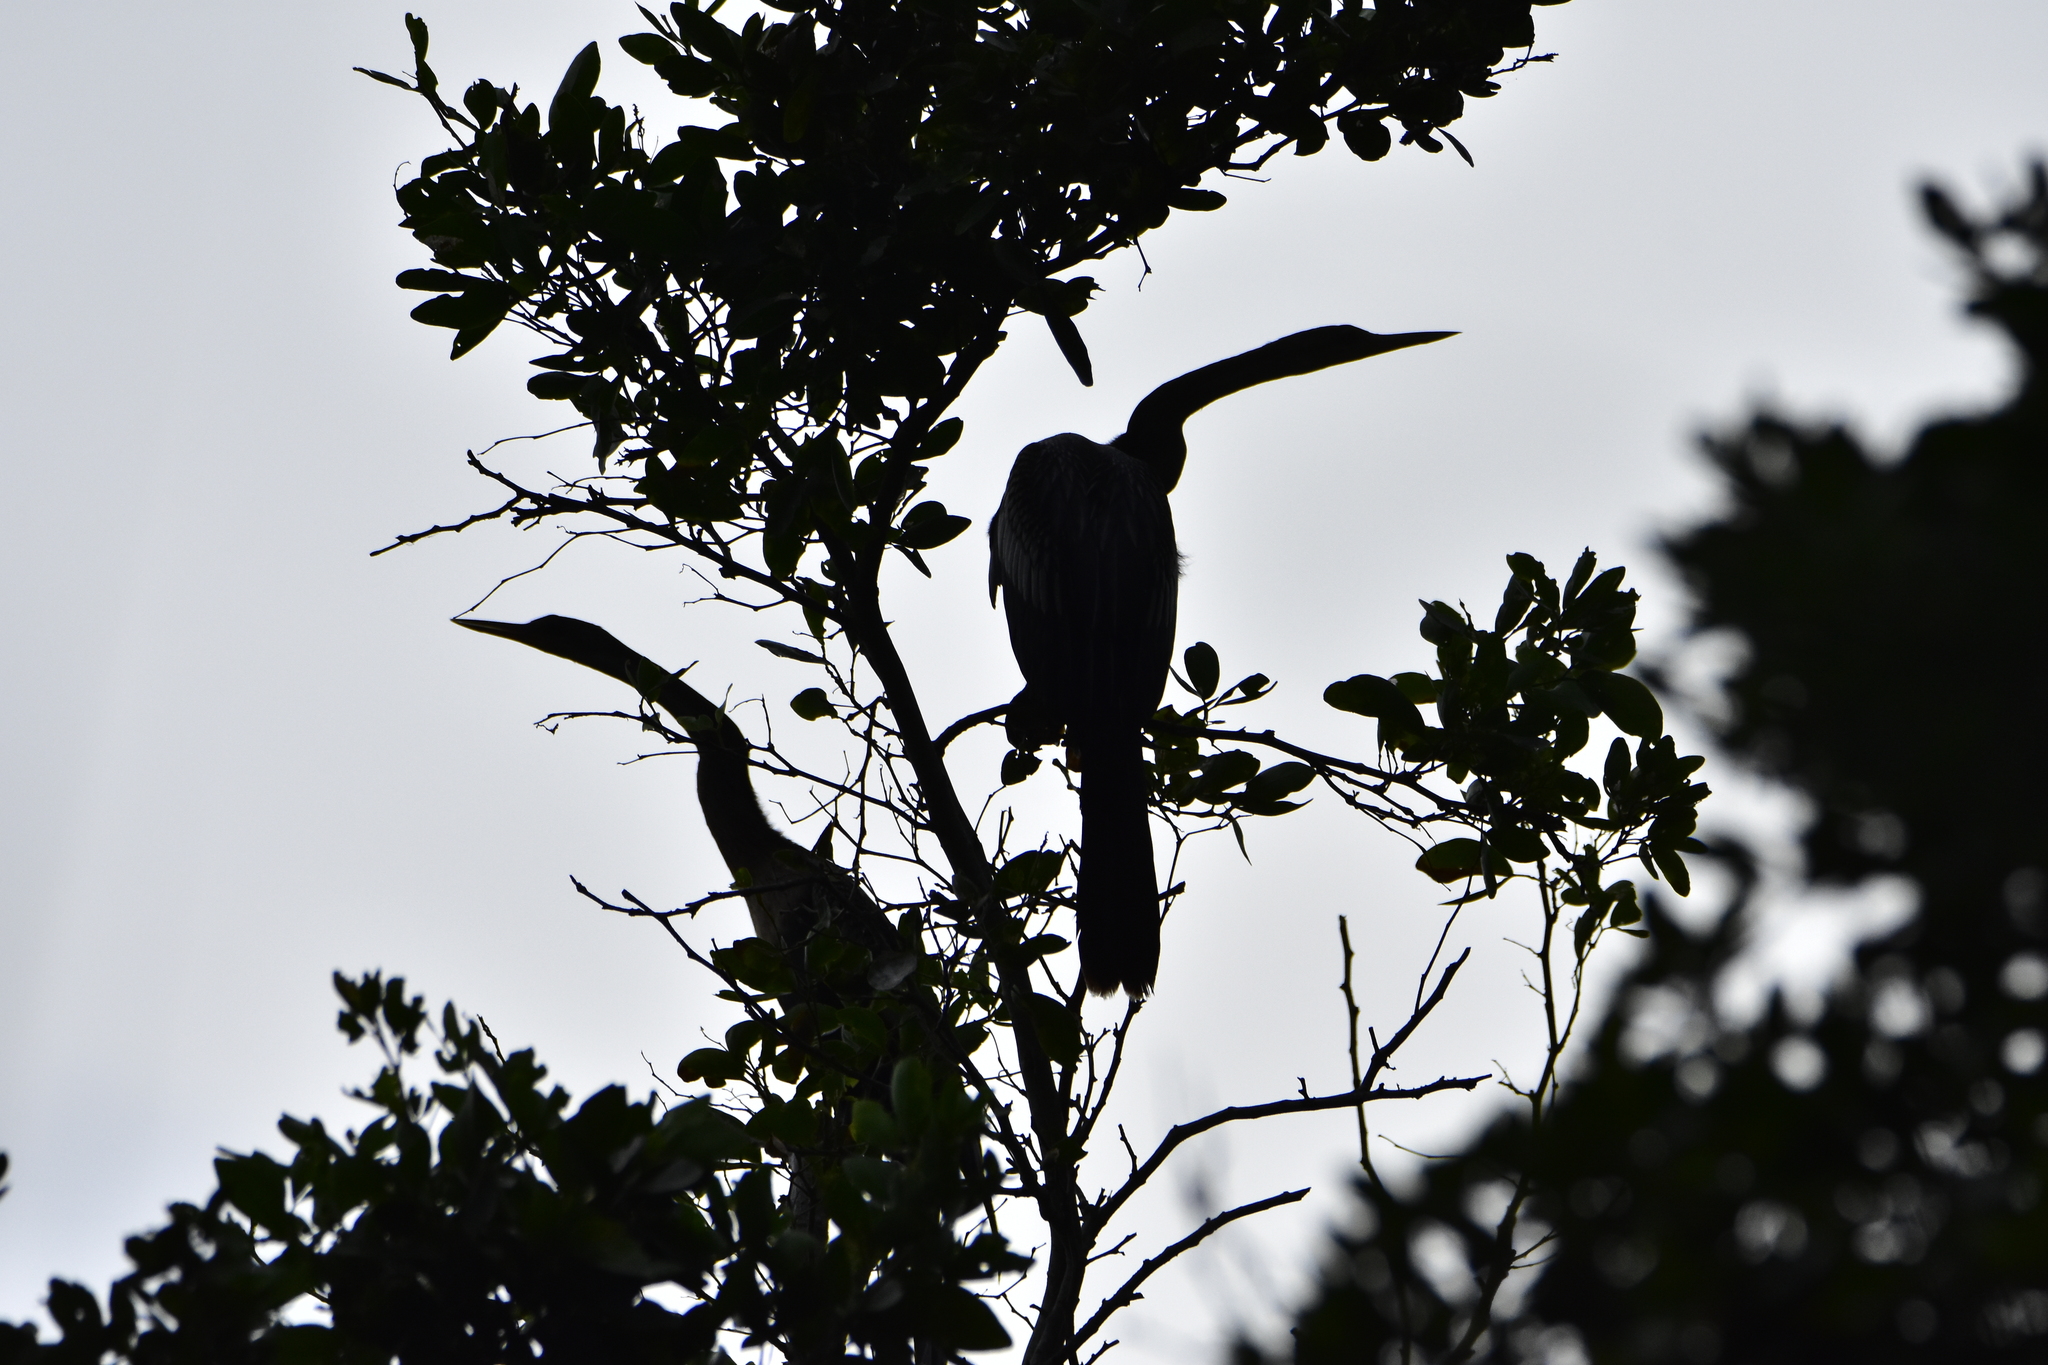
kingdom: Animalia
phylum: Chordata
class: Aves
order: Suliformes
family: Anhingidae
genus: Anhinga
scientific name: Anhinga anhinga
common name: Anhinga
